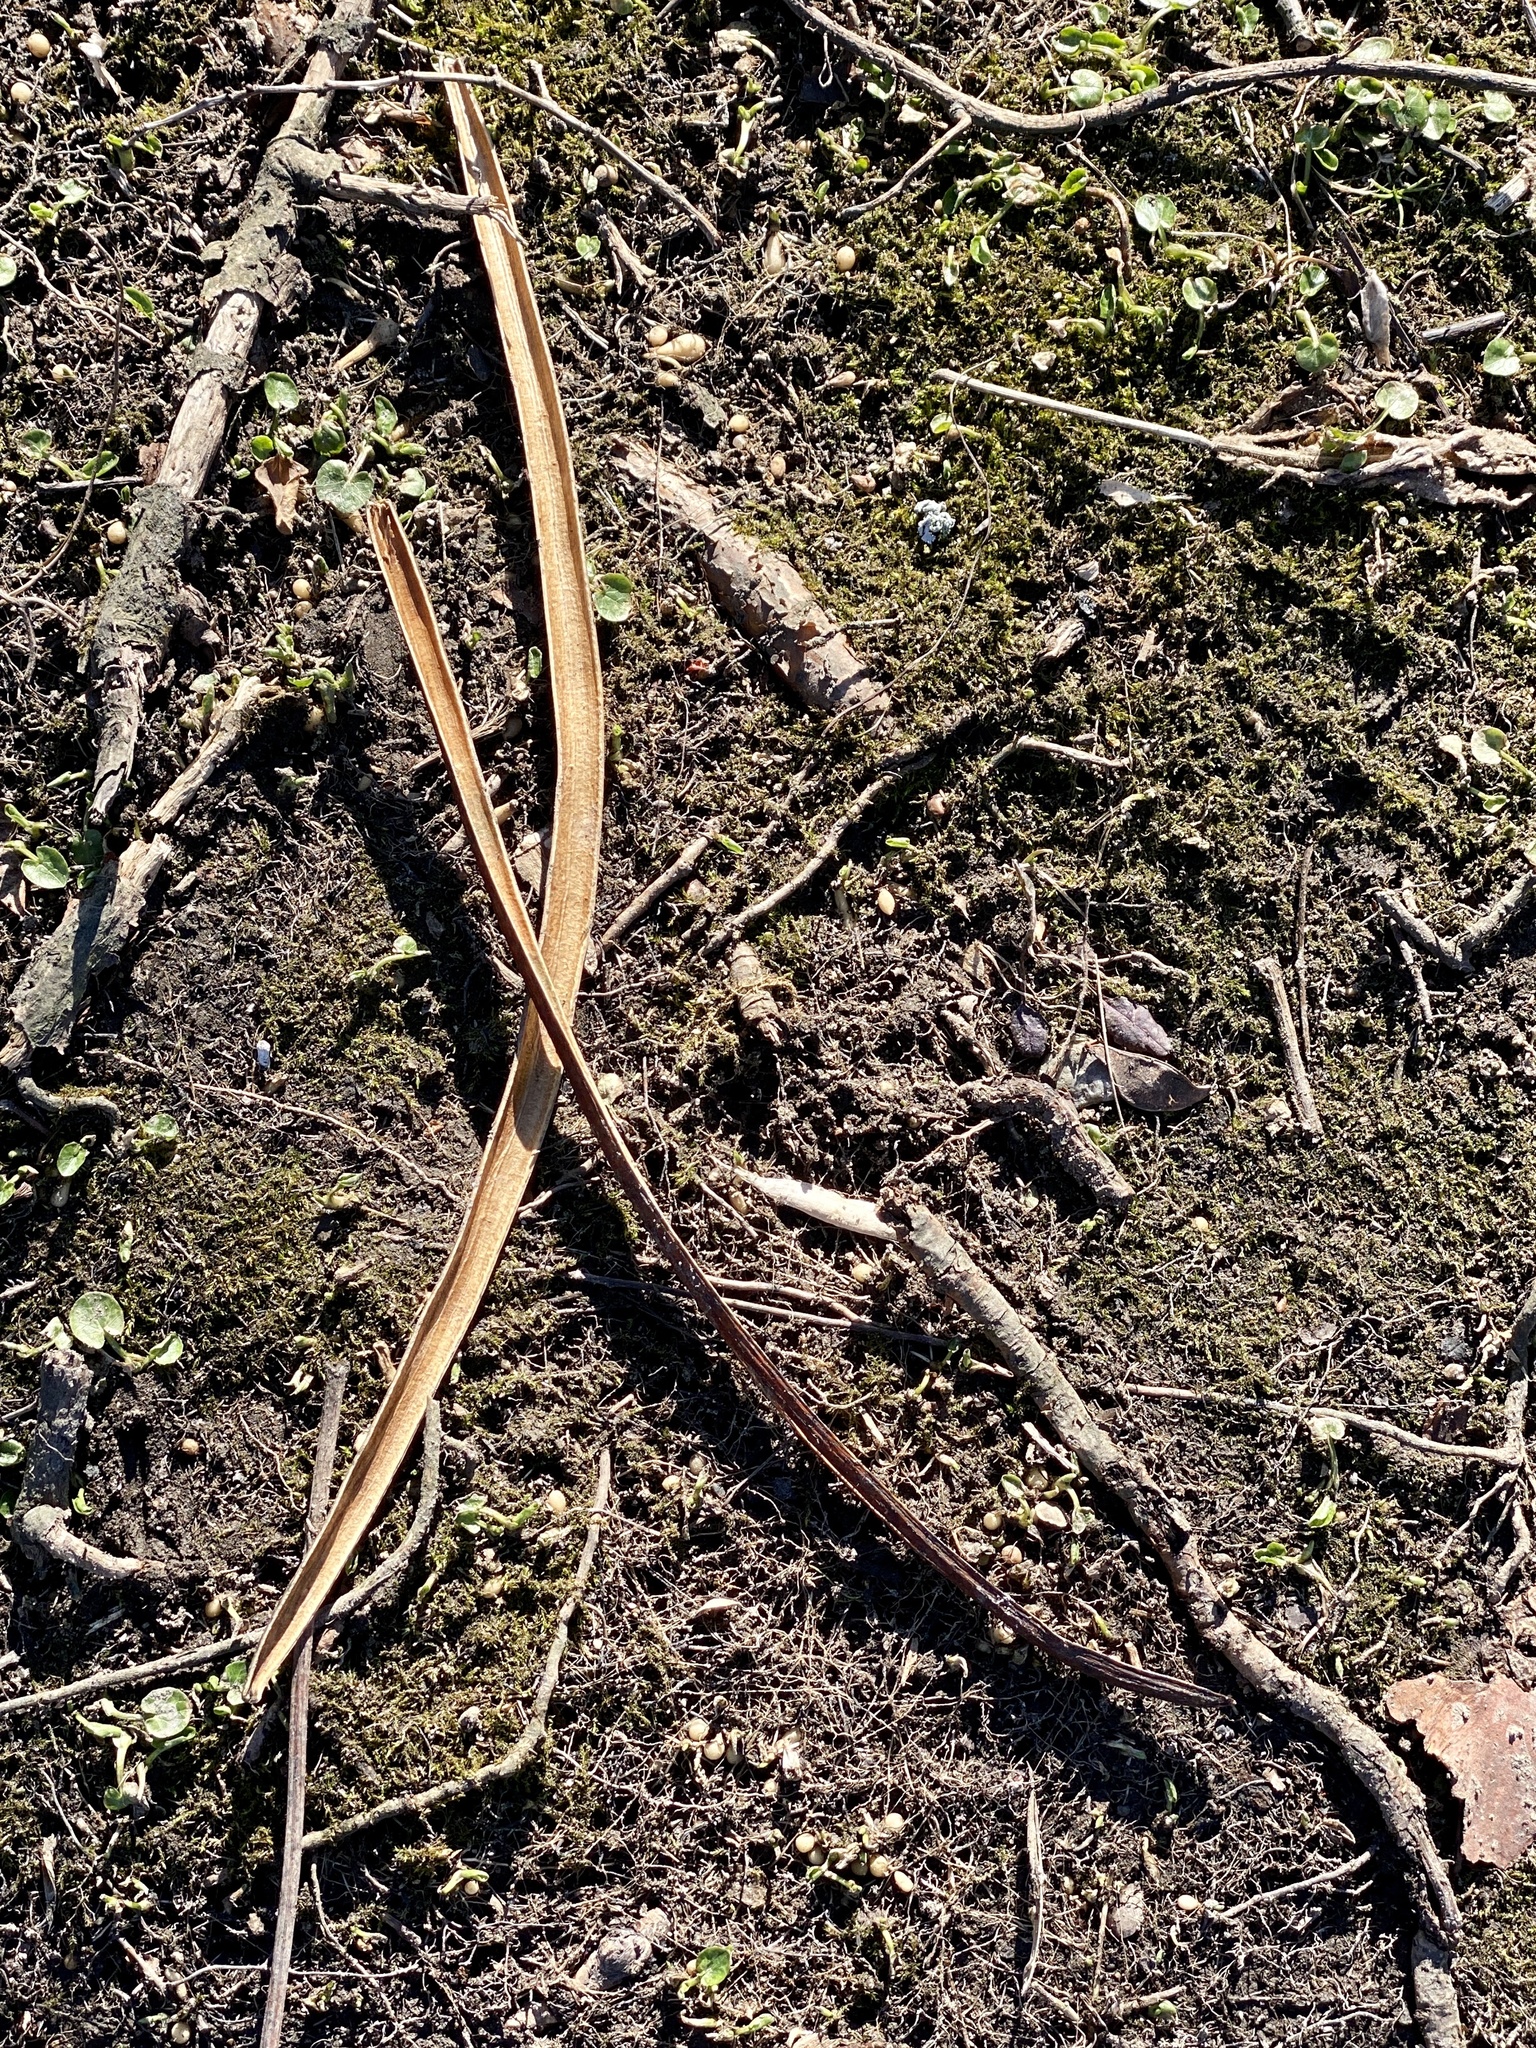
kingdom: Plantae
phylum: Tracheophyta
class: Magnoliopsida
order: Lamiales
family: Bignoniaceae
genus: Catalpa
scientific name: Catalpa
